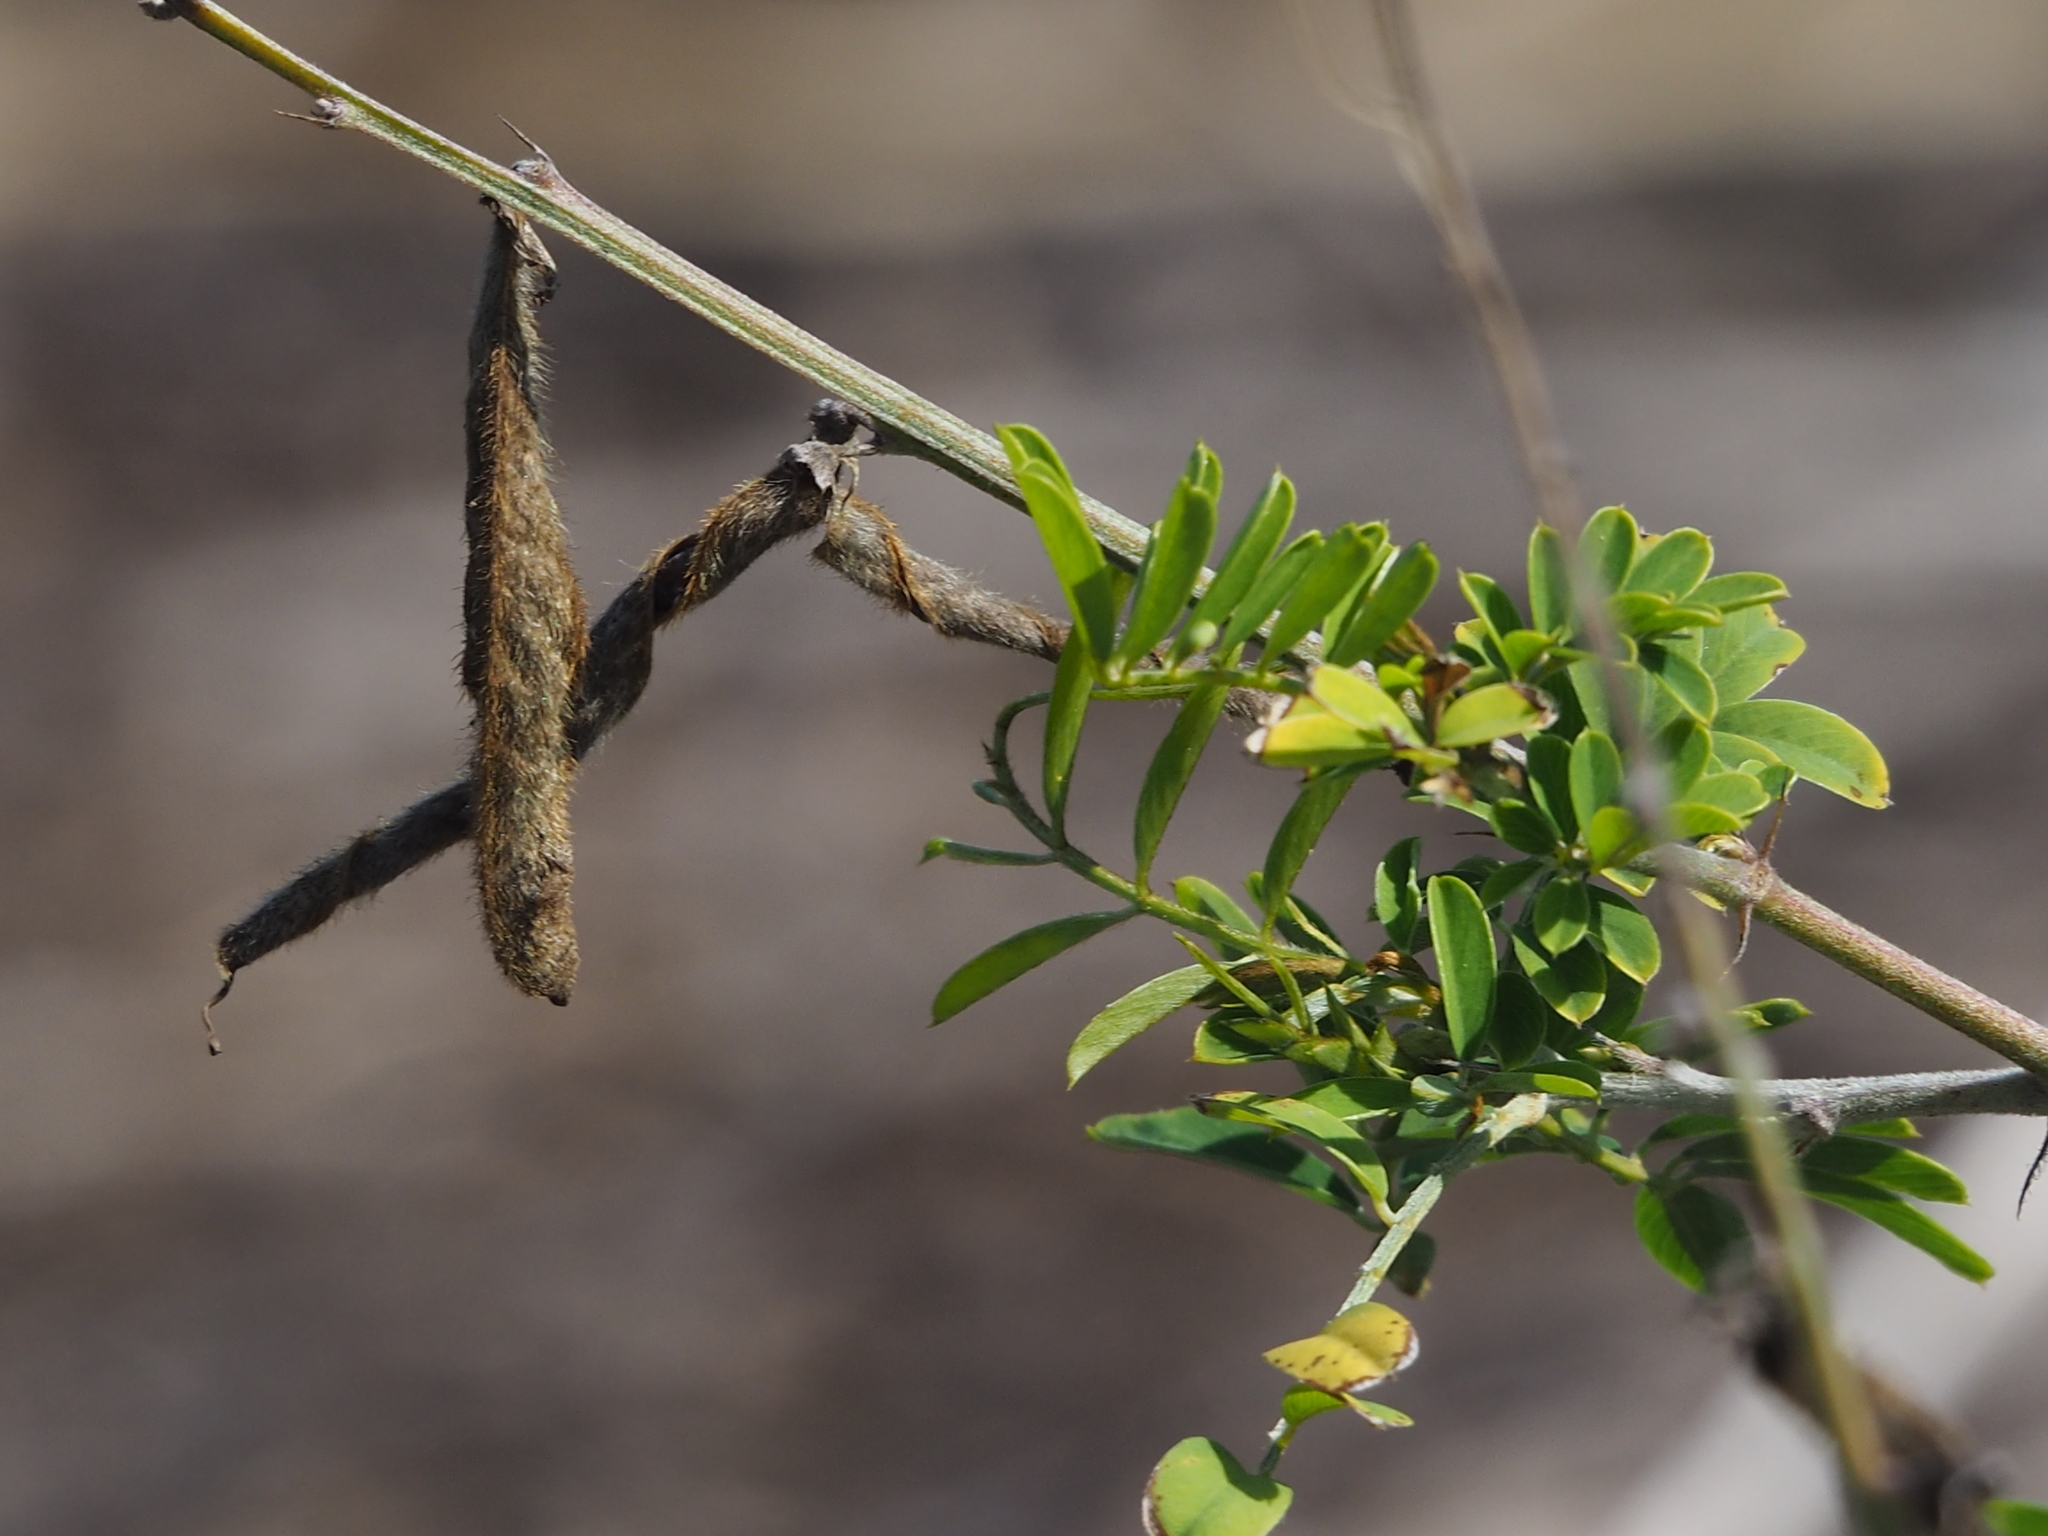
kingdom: Plantae
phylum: Tracheophyta
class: Magnoliopsida
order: Fabales
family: Fabaceae
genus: Tephrosia
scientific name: Tephrosia noctiflora
